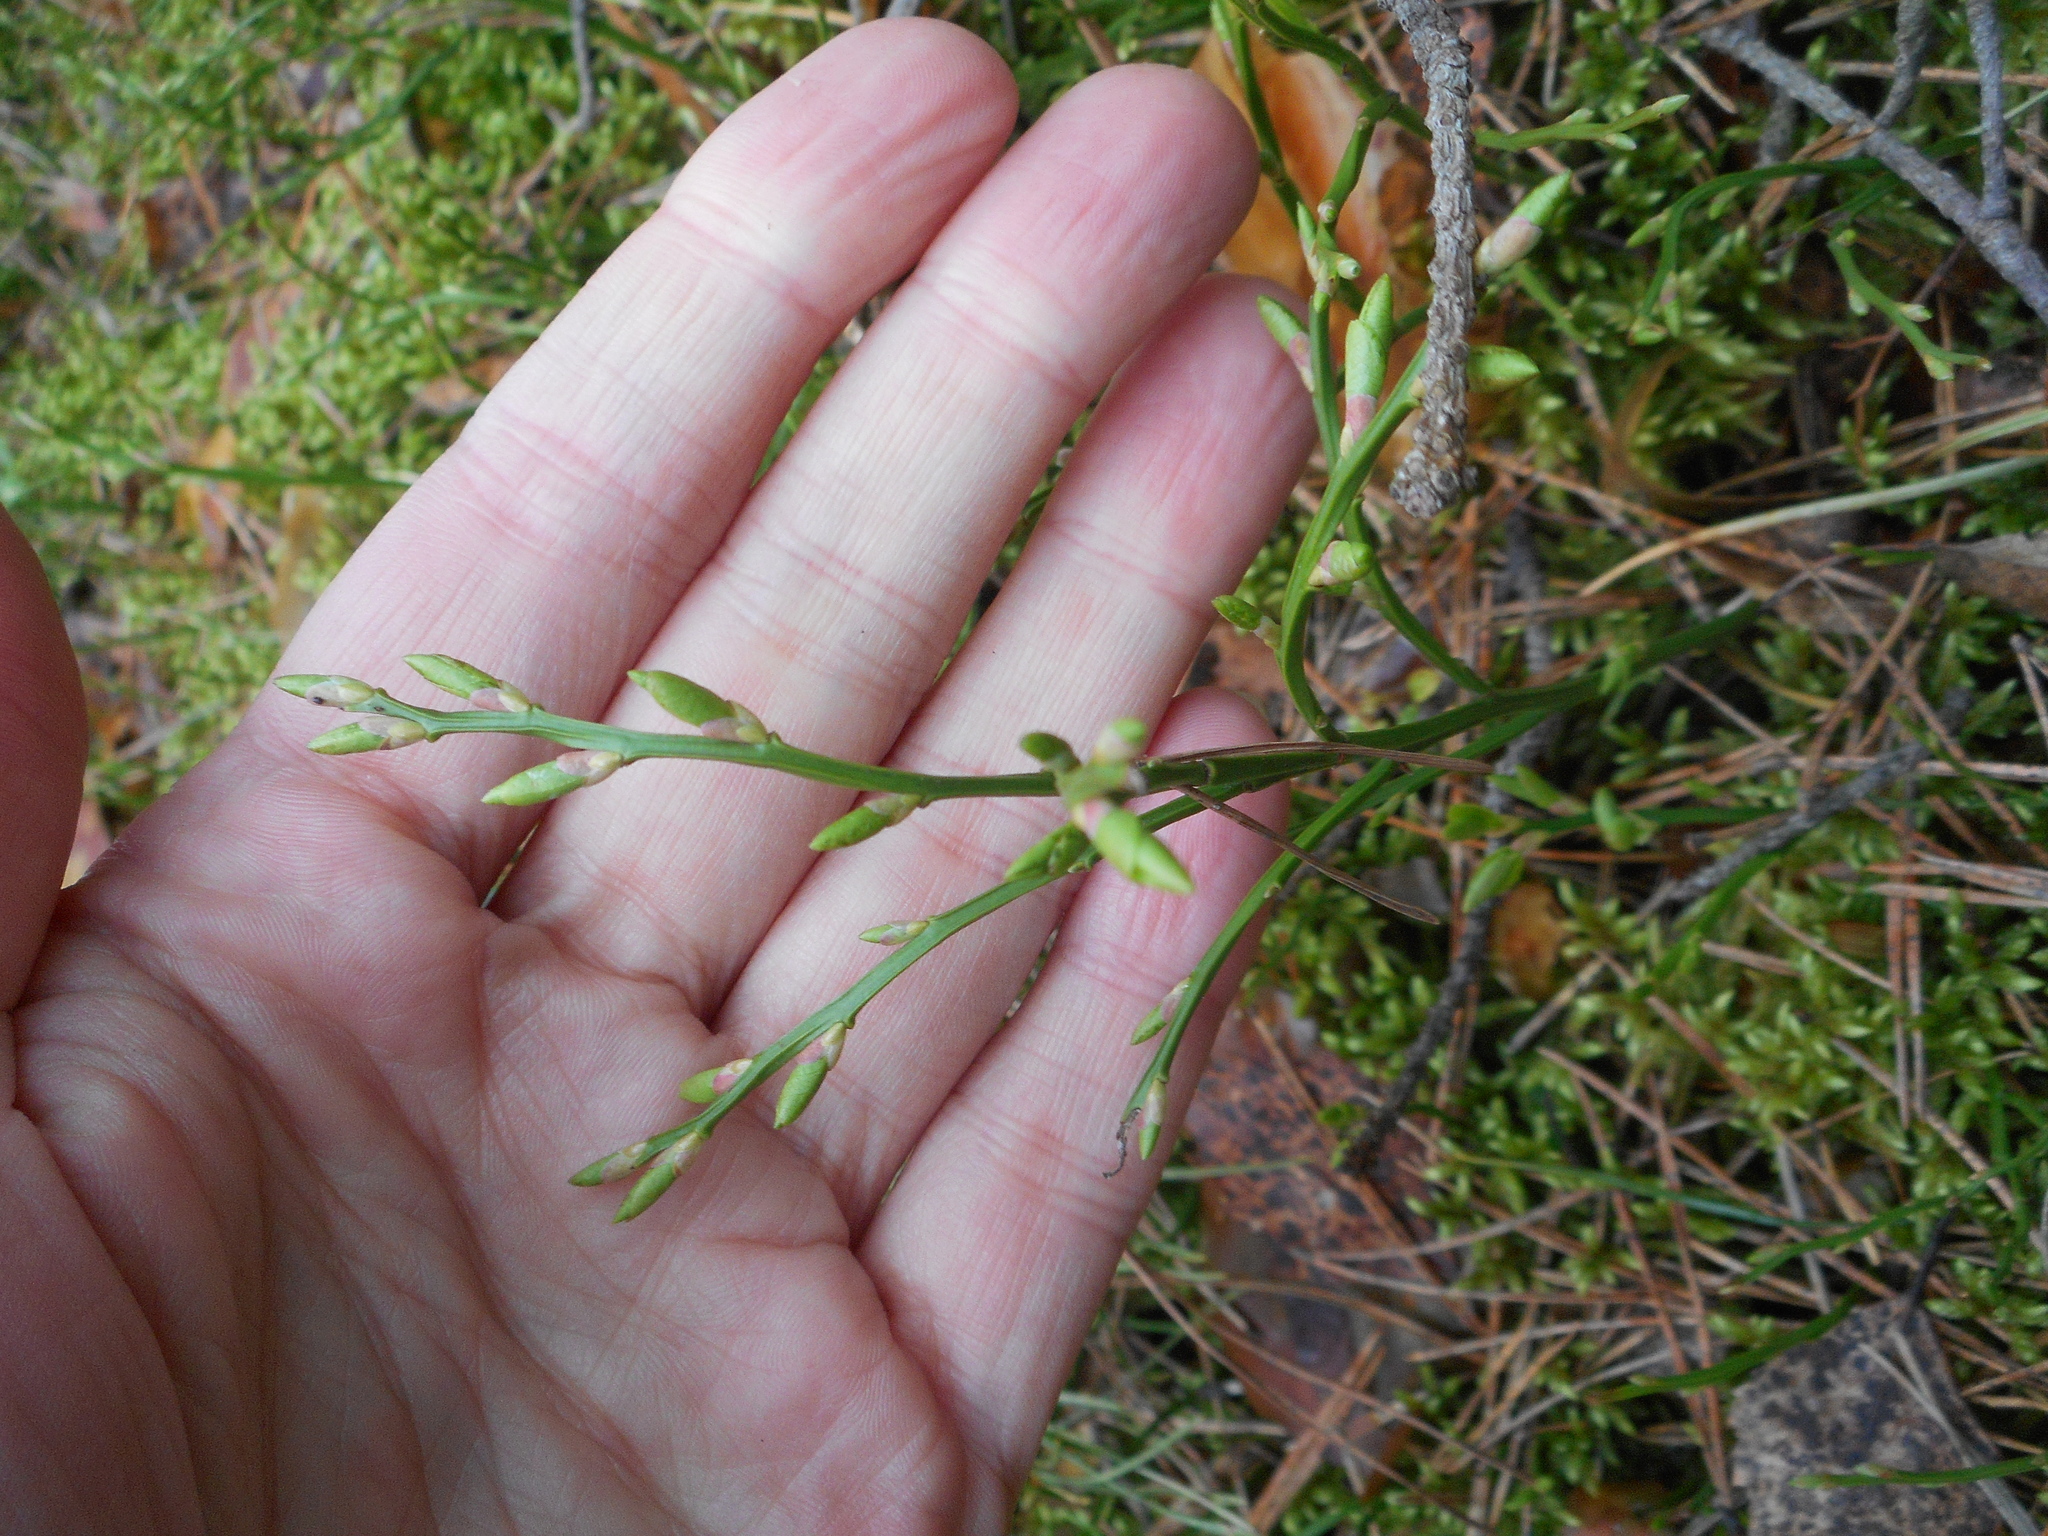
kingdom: Plantae
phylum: Tracheophyta
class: Magnoliopsida
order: Ericales
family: Ericaceae
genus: Vaccinium
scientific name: Vaccinium myrtillus
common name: Bilberry
